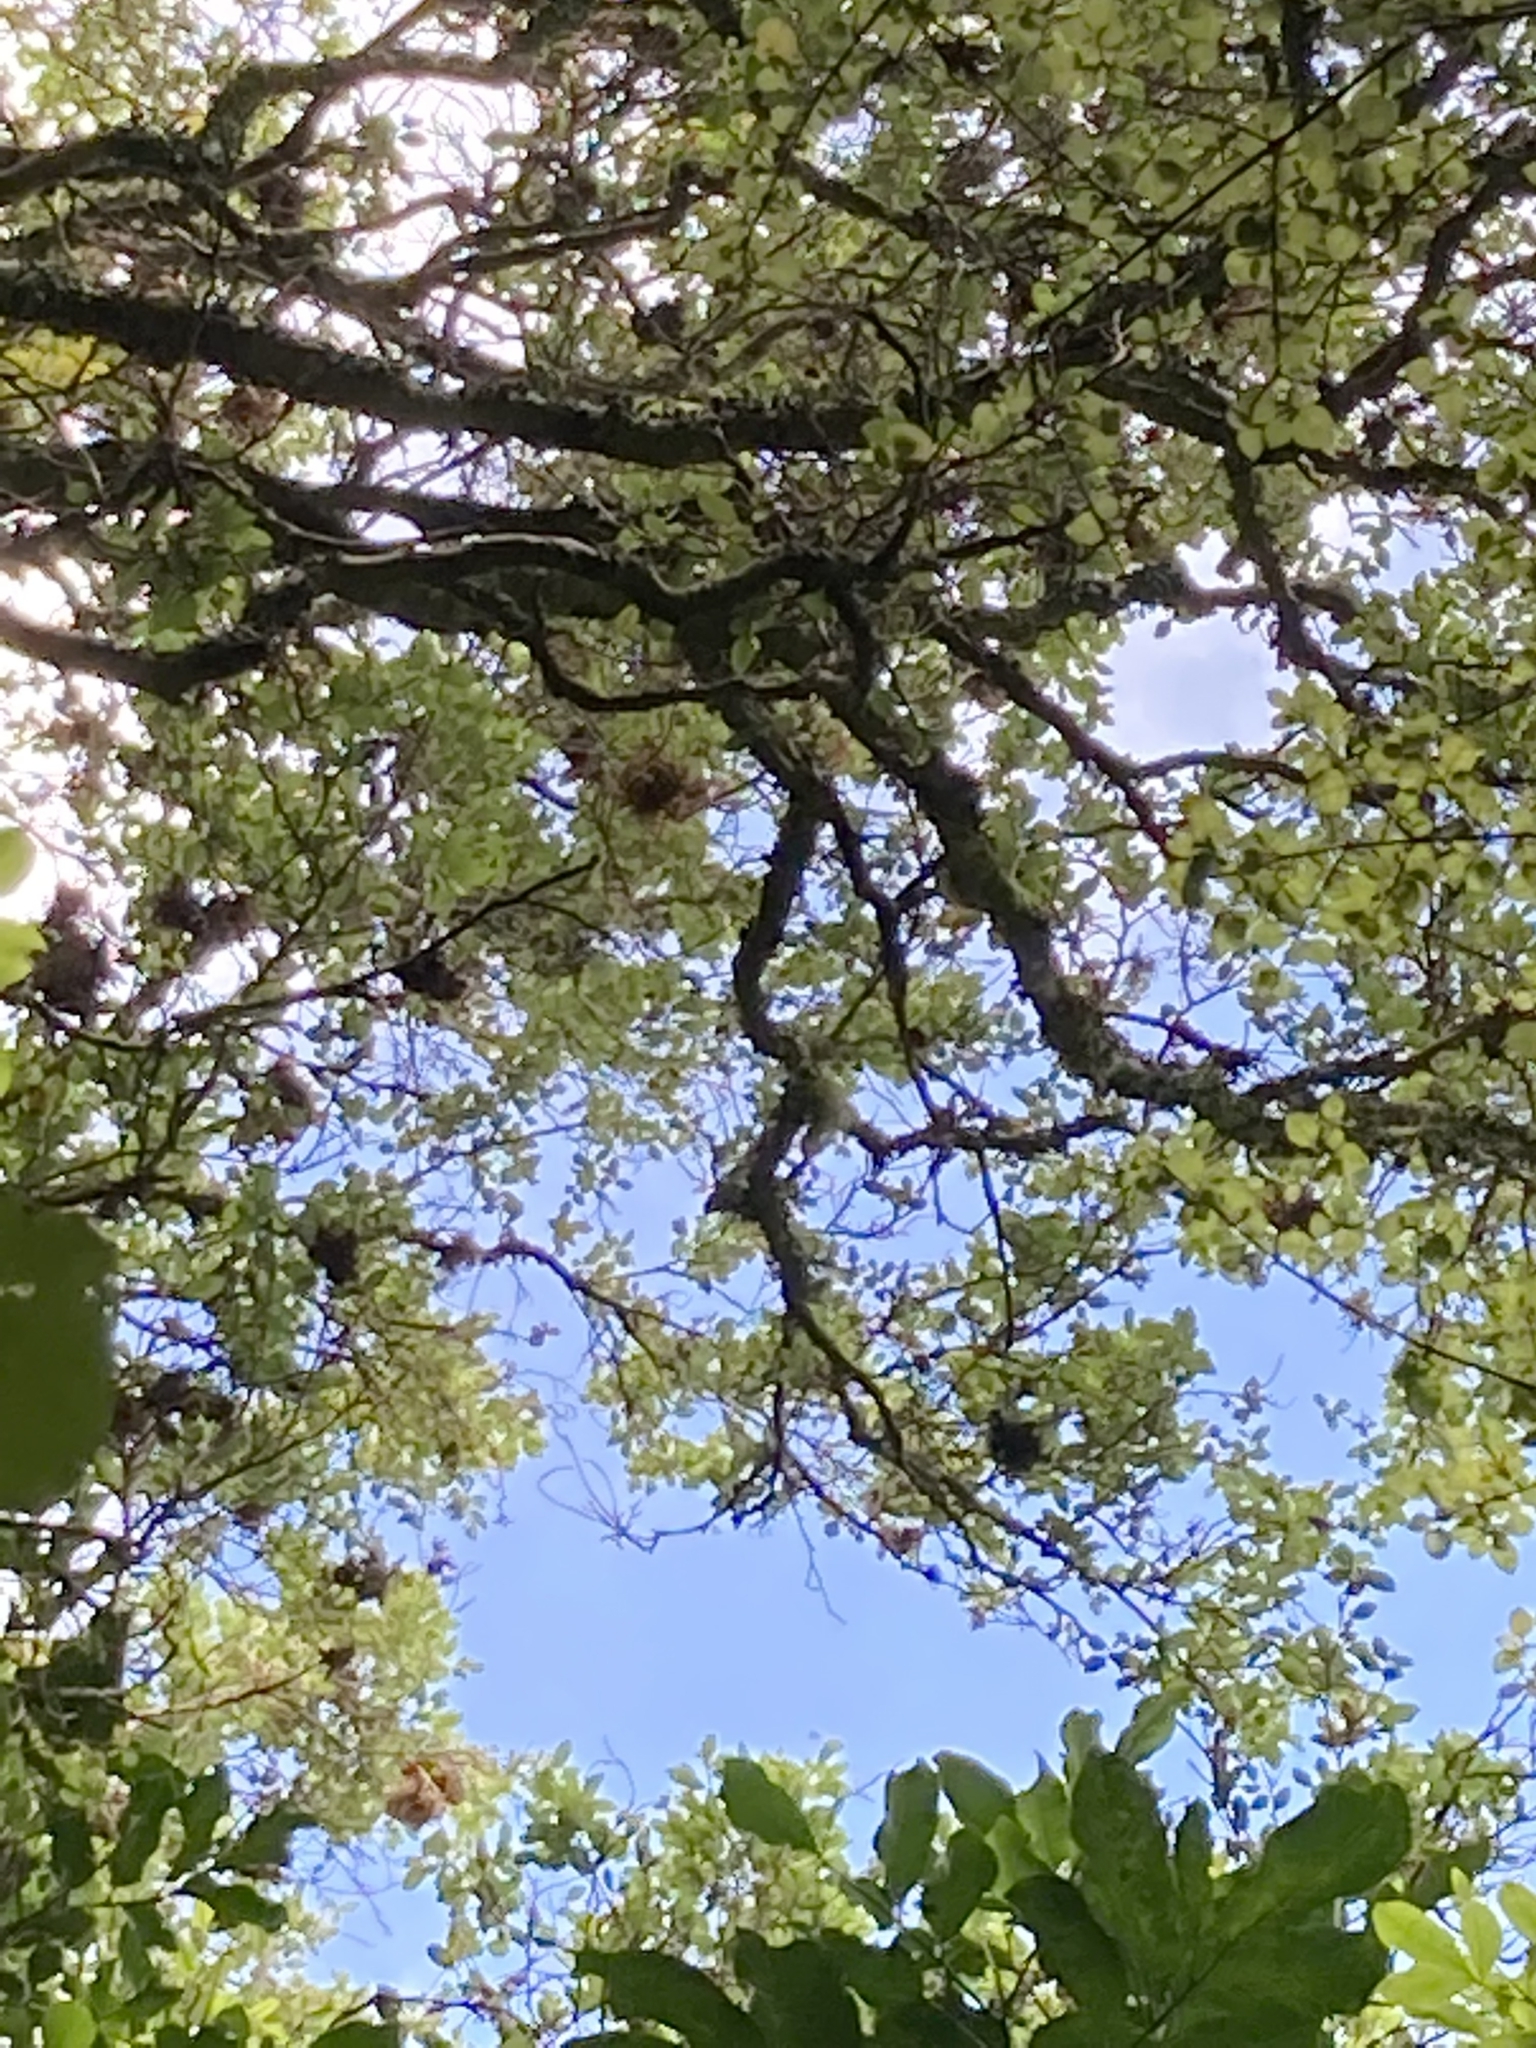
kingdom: Plantae
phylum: Tracheophyta
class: Magnoliopsida
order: Rosales
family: Moraceae
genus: Paratrophis
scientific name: Paratrophis banksii
